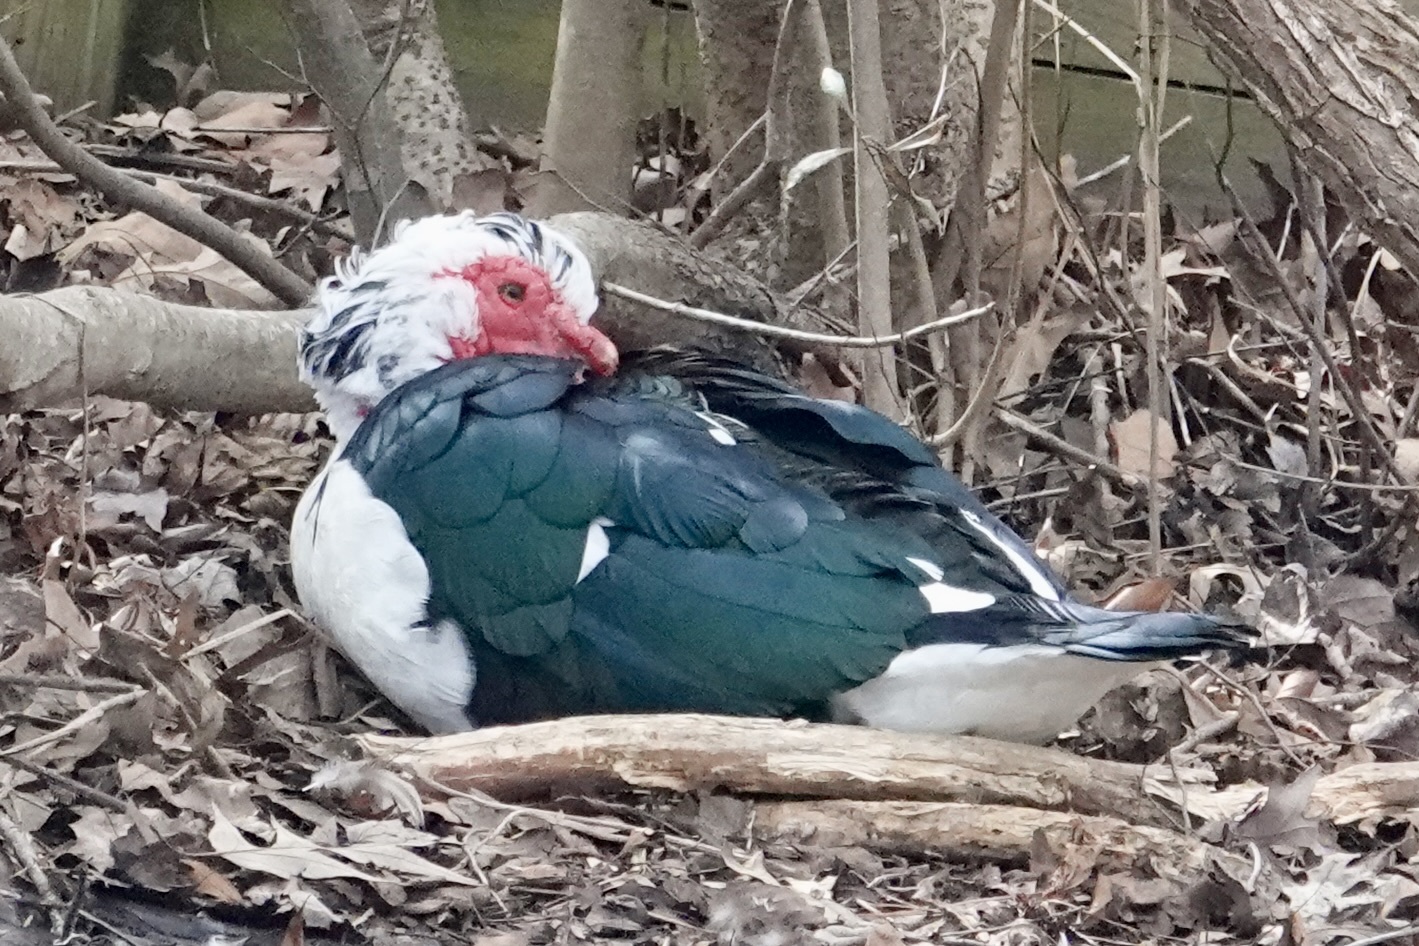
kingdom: Animalia
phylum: Chordata
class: Aves
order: Anseriformes
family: Anatidae
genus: Cairina
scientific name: Cairina moschata
